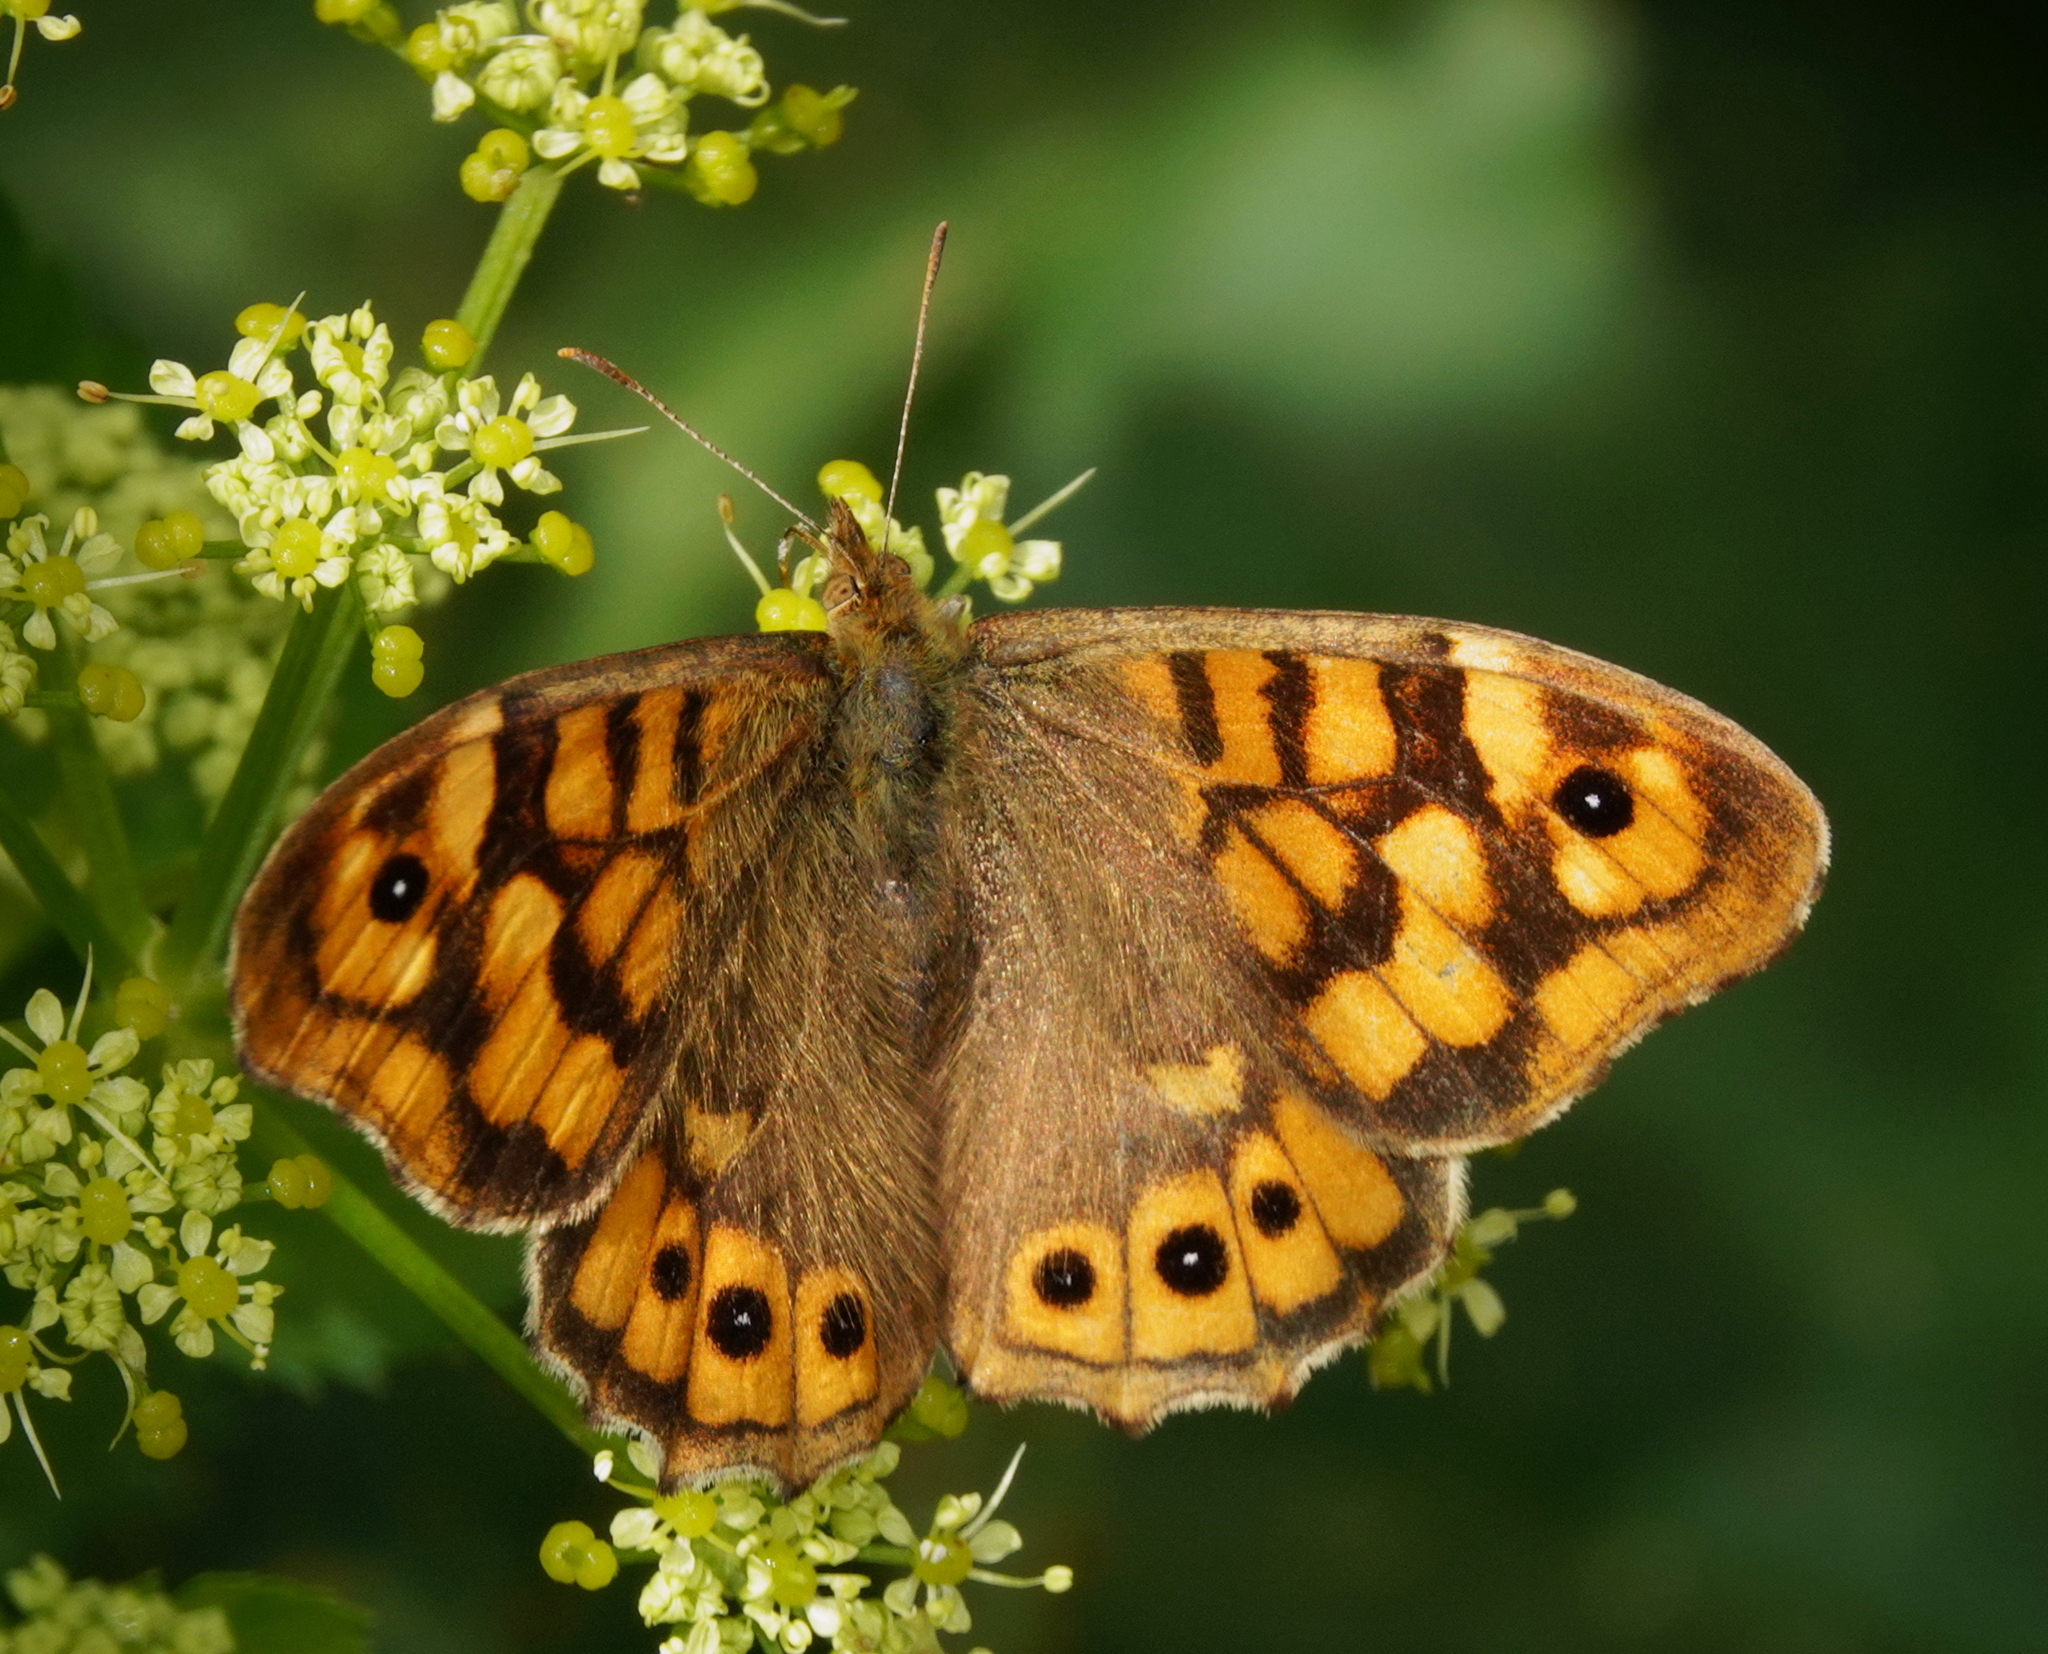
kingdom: Animalia
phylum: Arthropoda
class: Insecta
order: Lepidoptera
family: Nymphalidae
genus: Pararge
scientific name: Pararge aegeria
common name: Speckled wood
